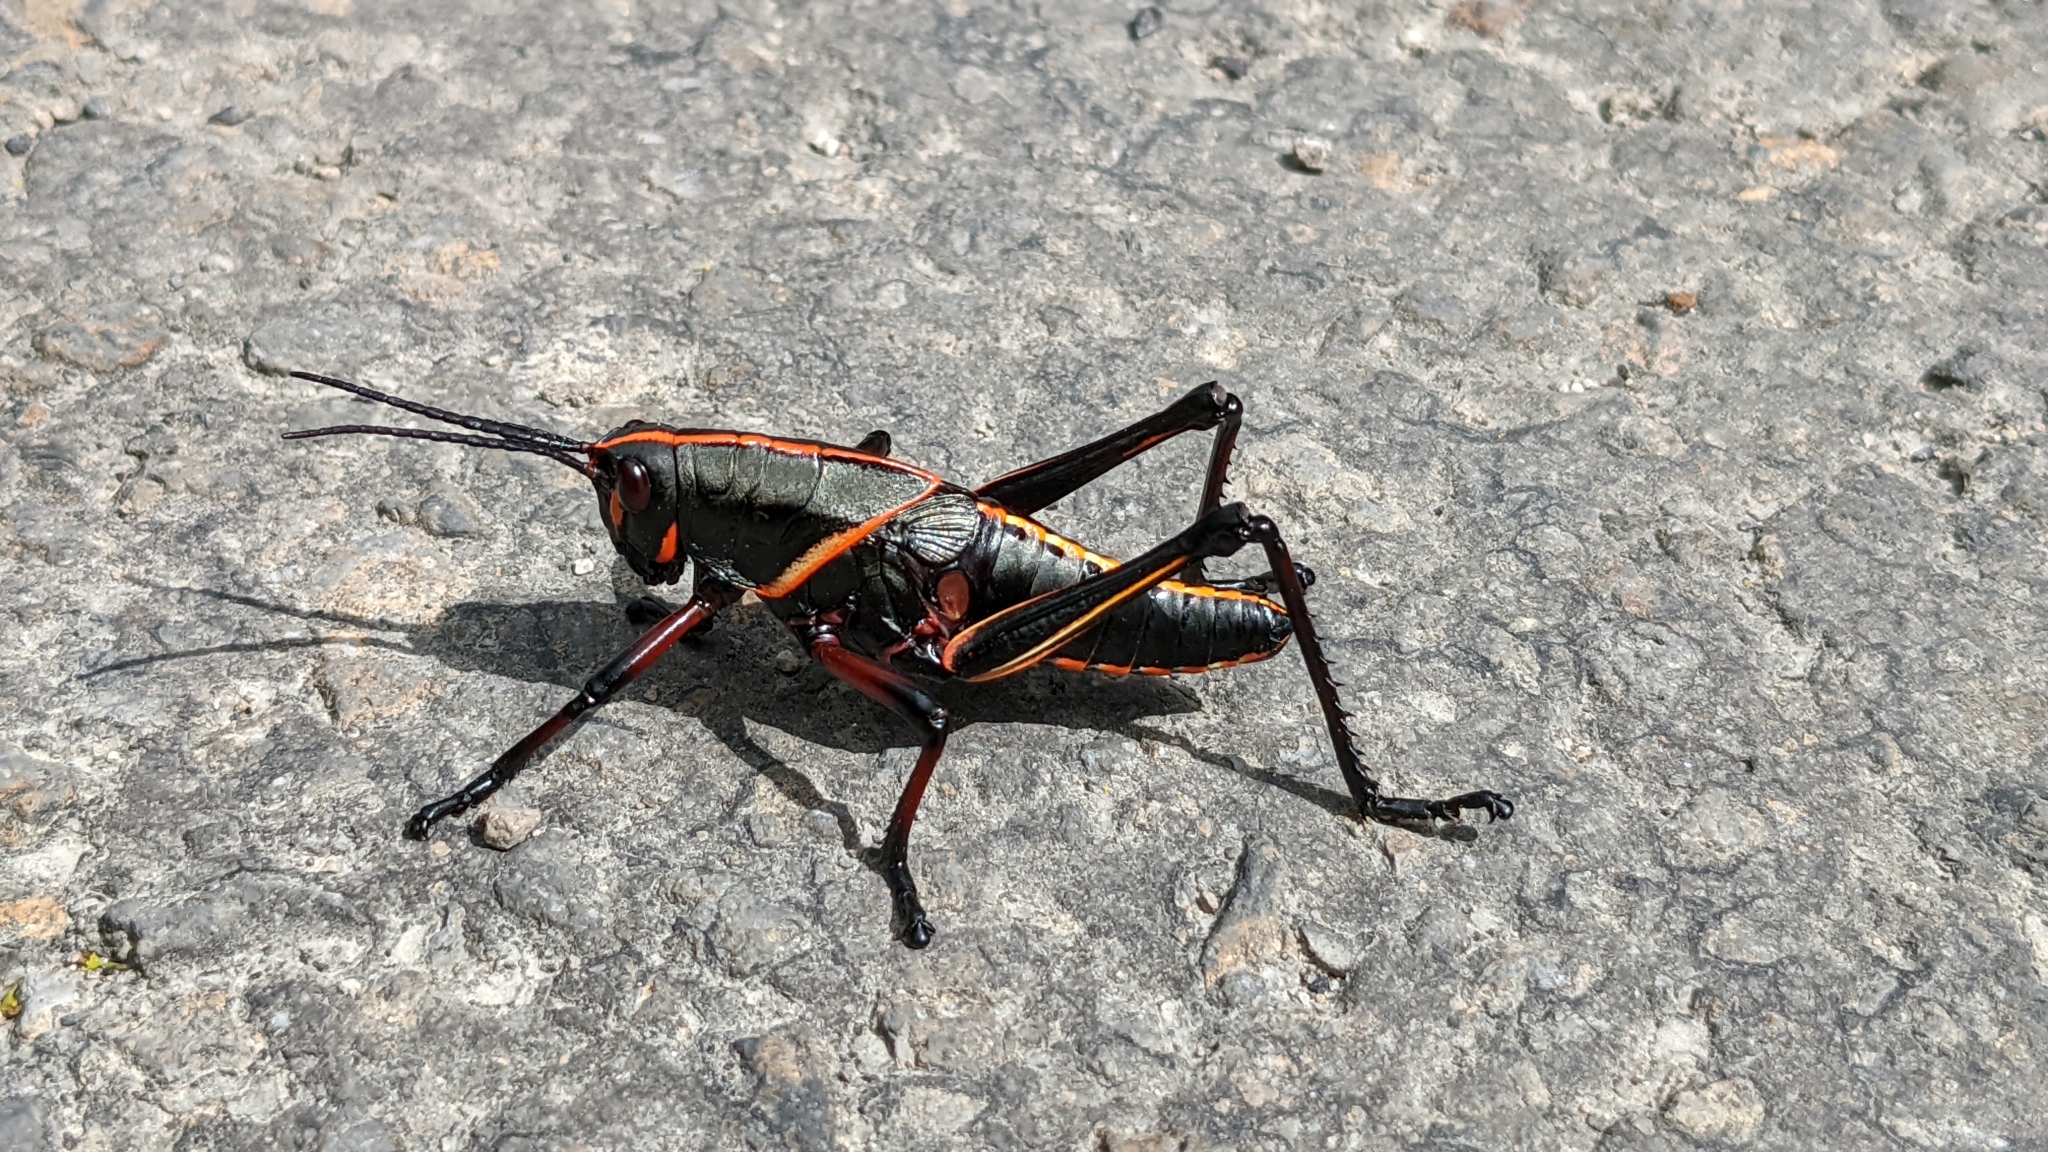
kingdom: Animalia
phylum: Arthropoda
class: Insecta
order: Orthoptera
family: Romaleidae
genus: Romalea
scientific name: Romalea microptera
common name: Eastern lubber grasshopper
